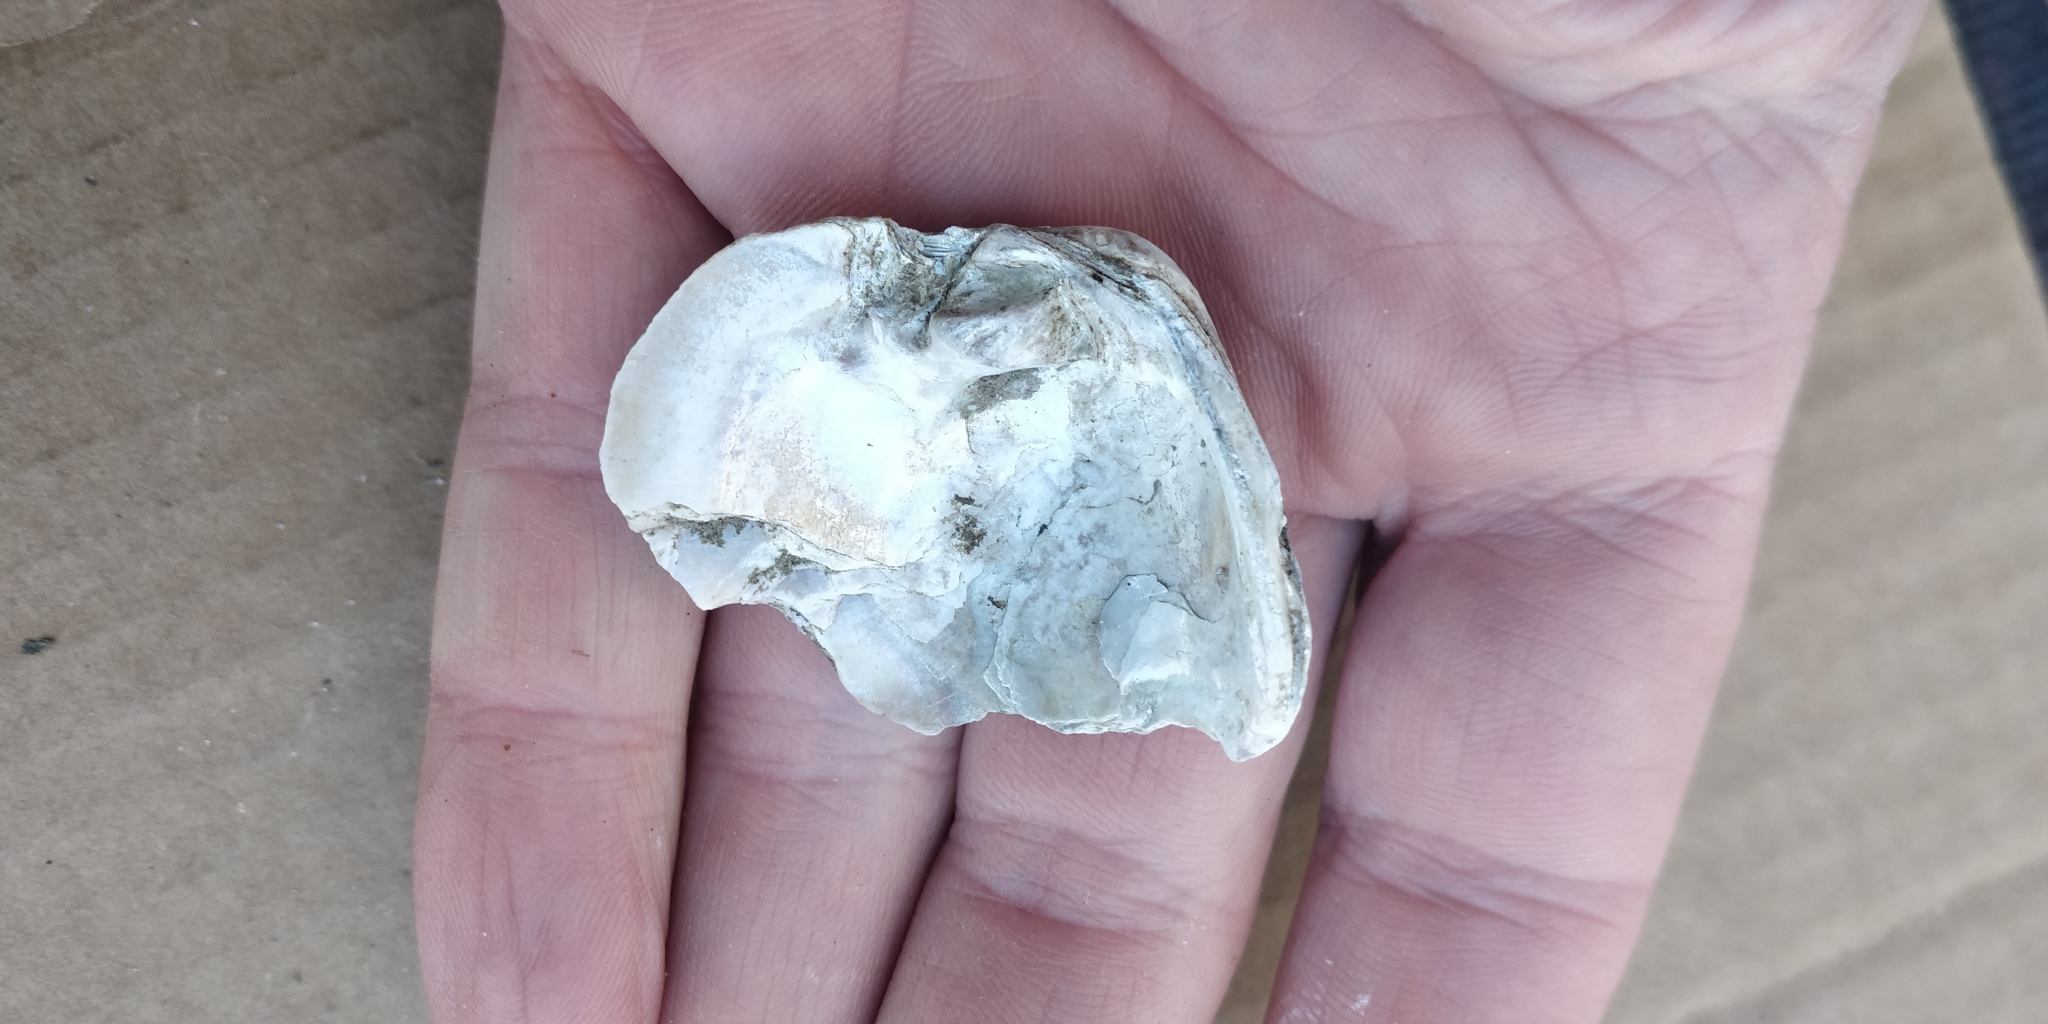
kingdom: Animalia
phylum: Mollusca
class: Bivalvia
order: Unionida
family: Unionidae
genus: Cyclonaias
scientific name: Cyclonaias pustulosa
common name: Pimpleback
